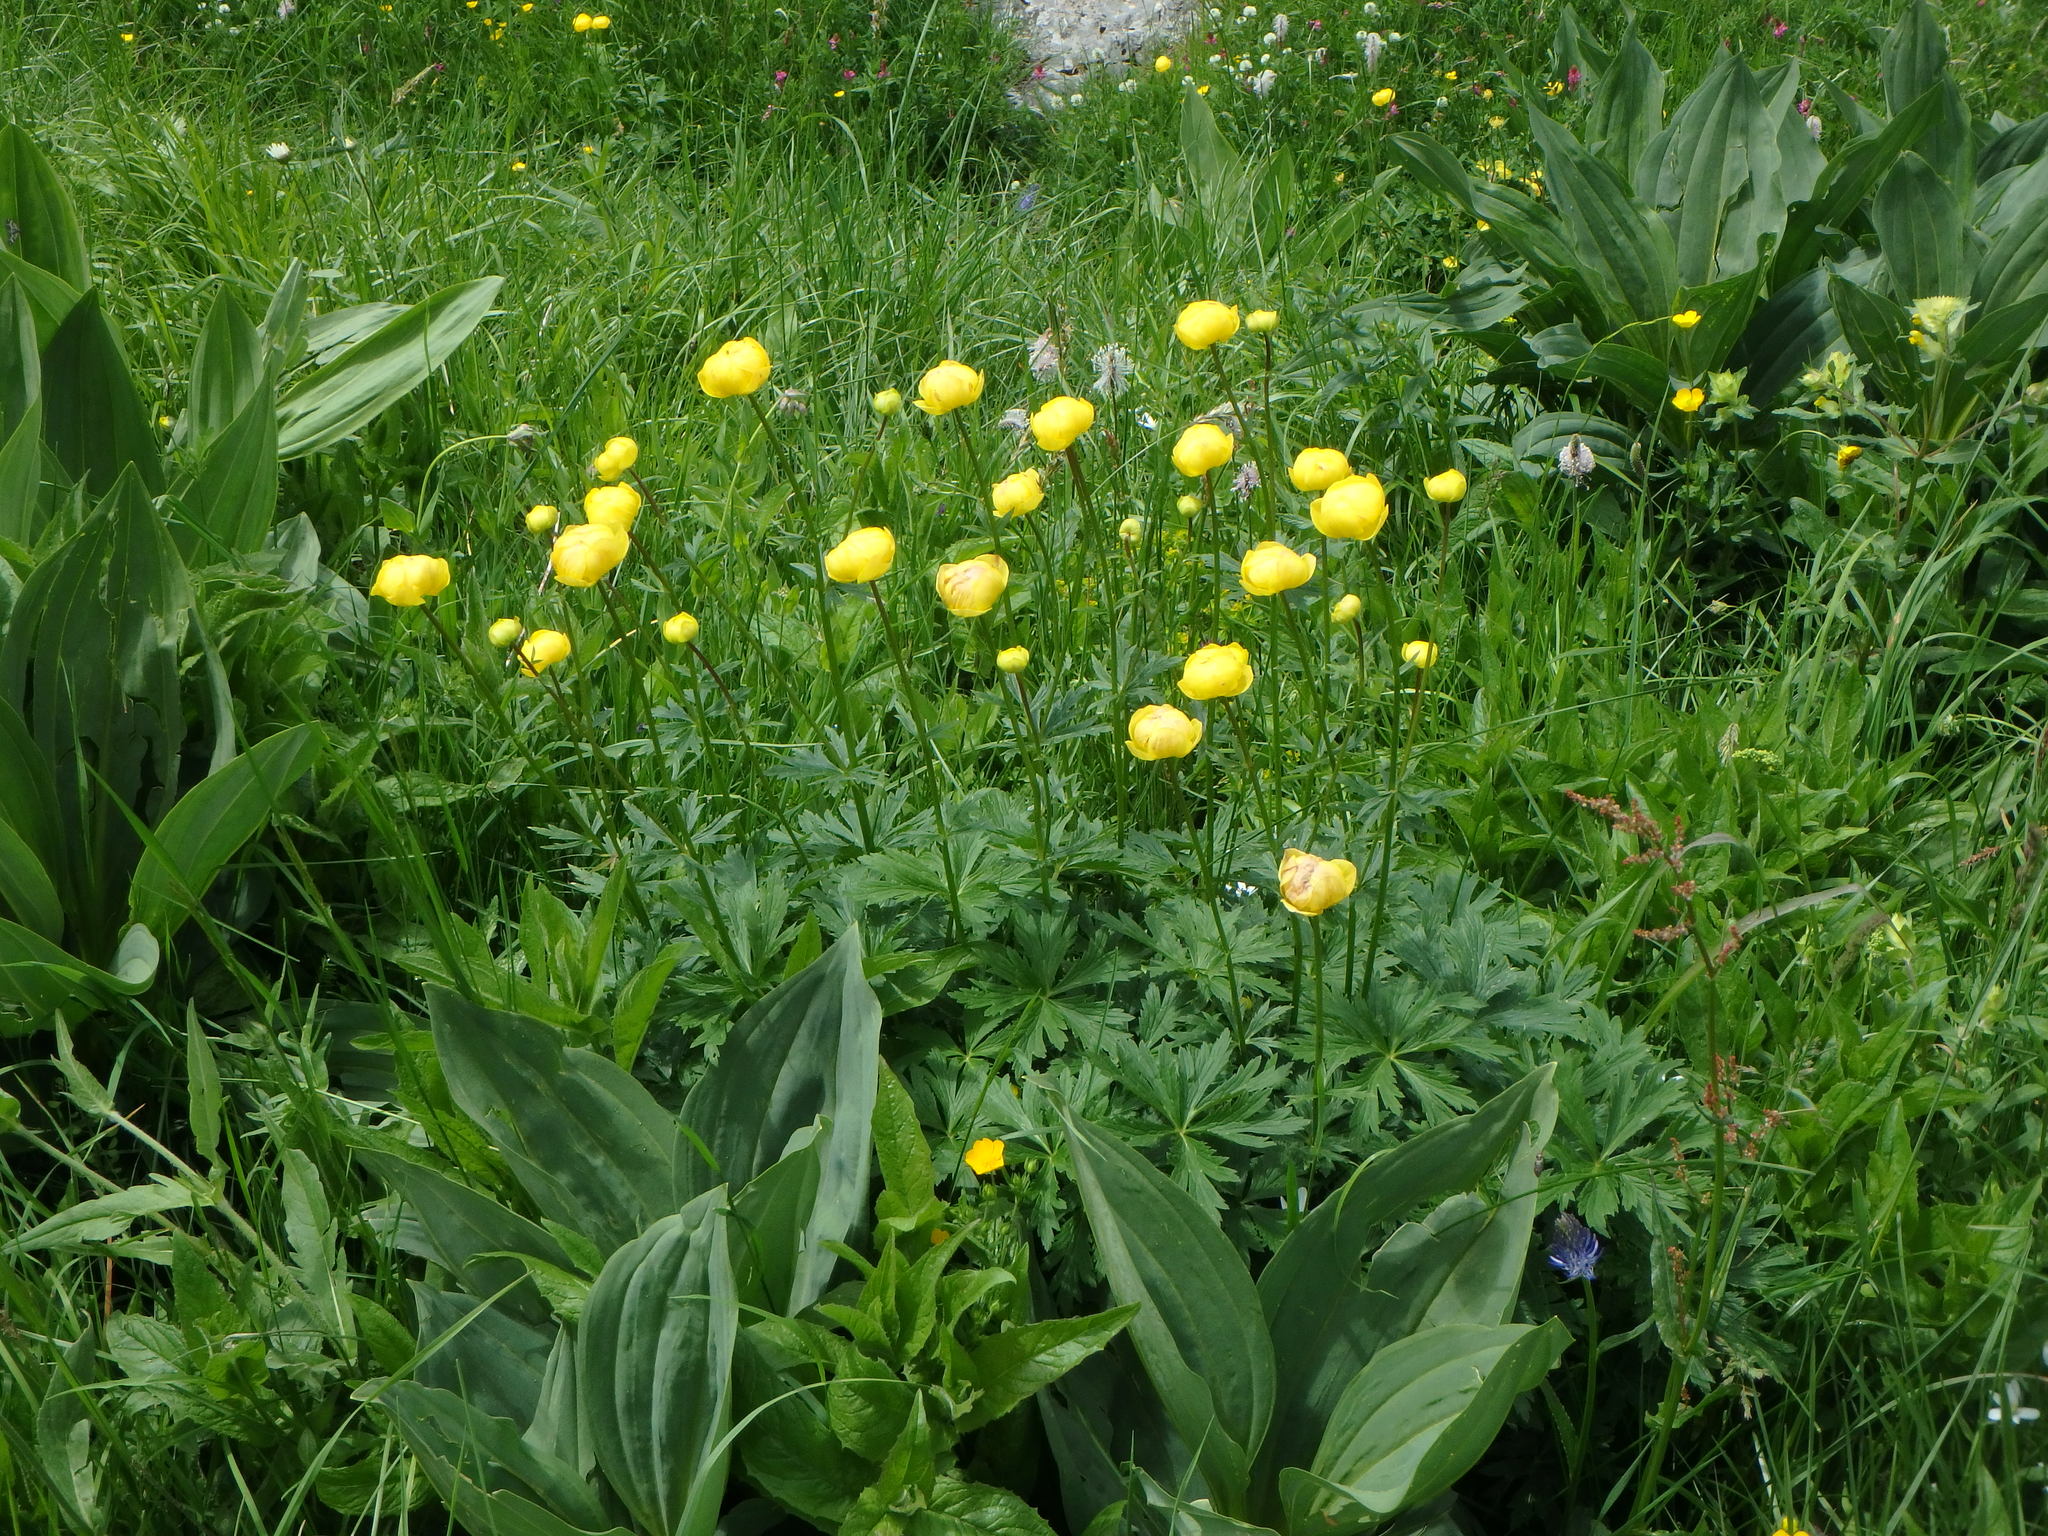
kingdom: Plantae
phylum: Tracheophyta
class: Magnoliopsida
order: Ranunculales
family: Ranunculaceae
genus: Trollius
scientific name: Trollius europaeus
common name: European globeflower
